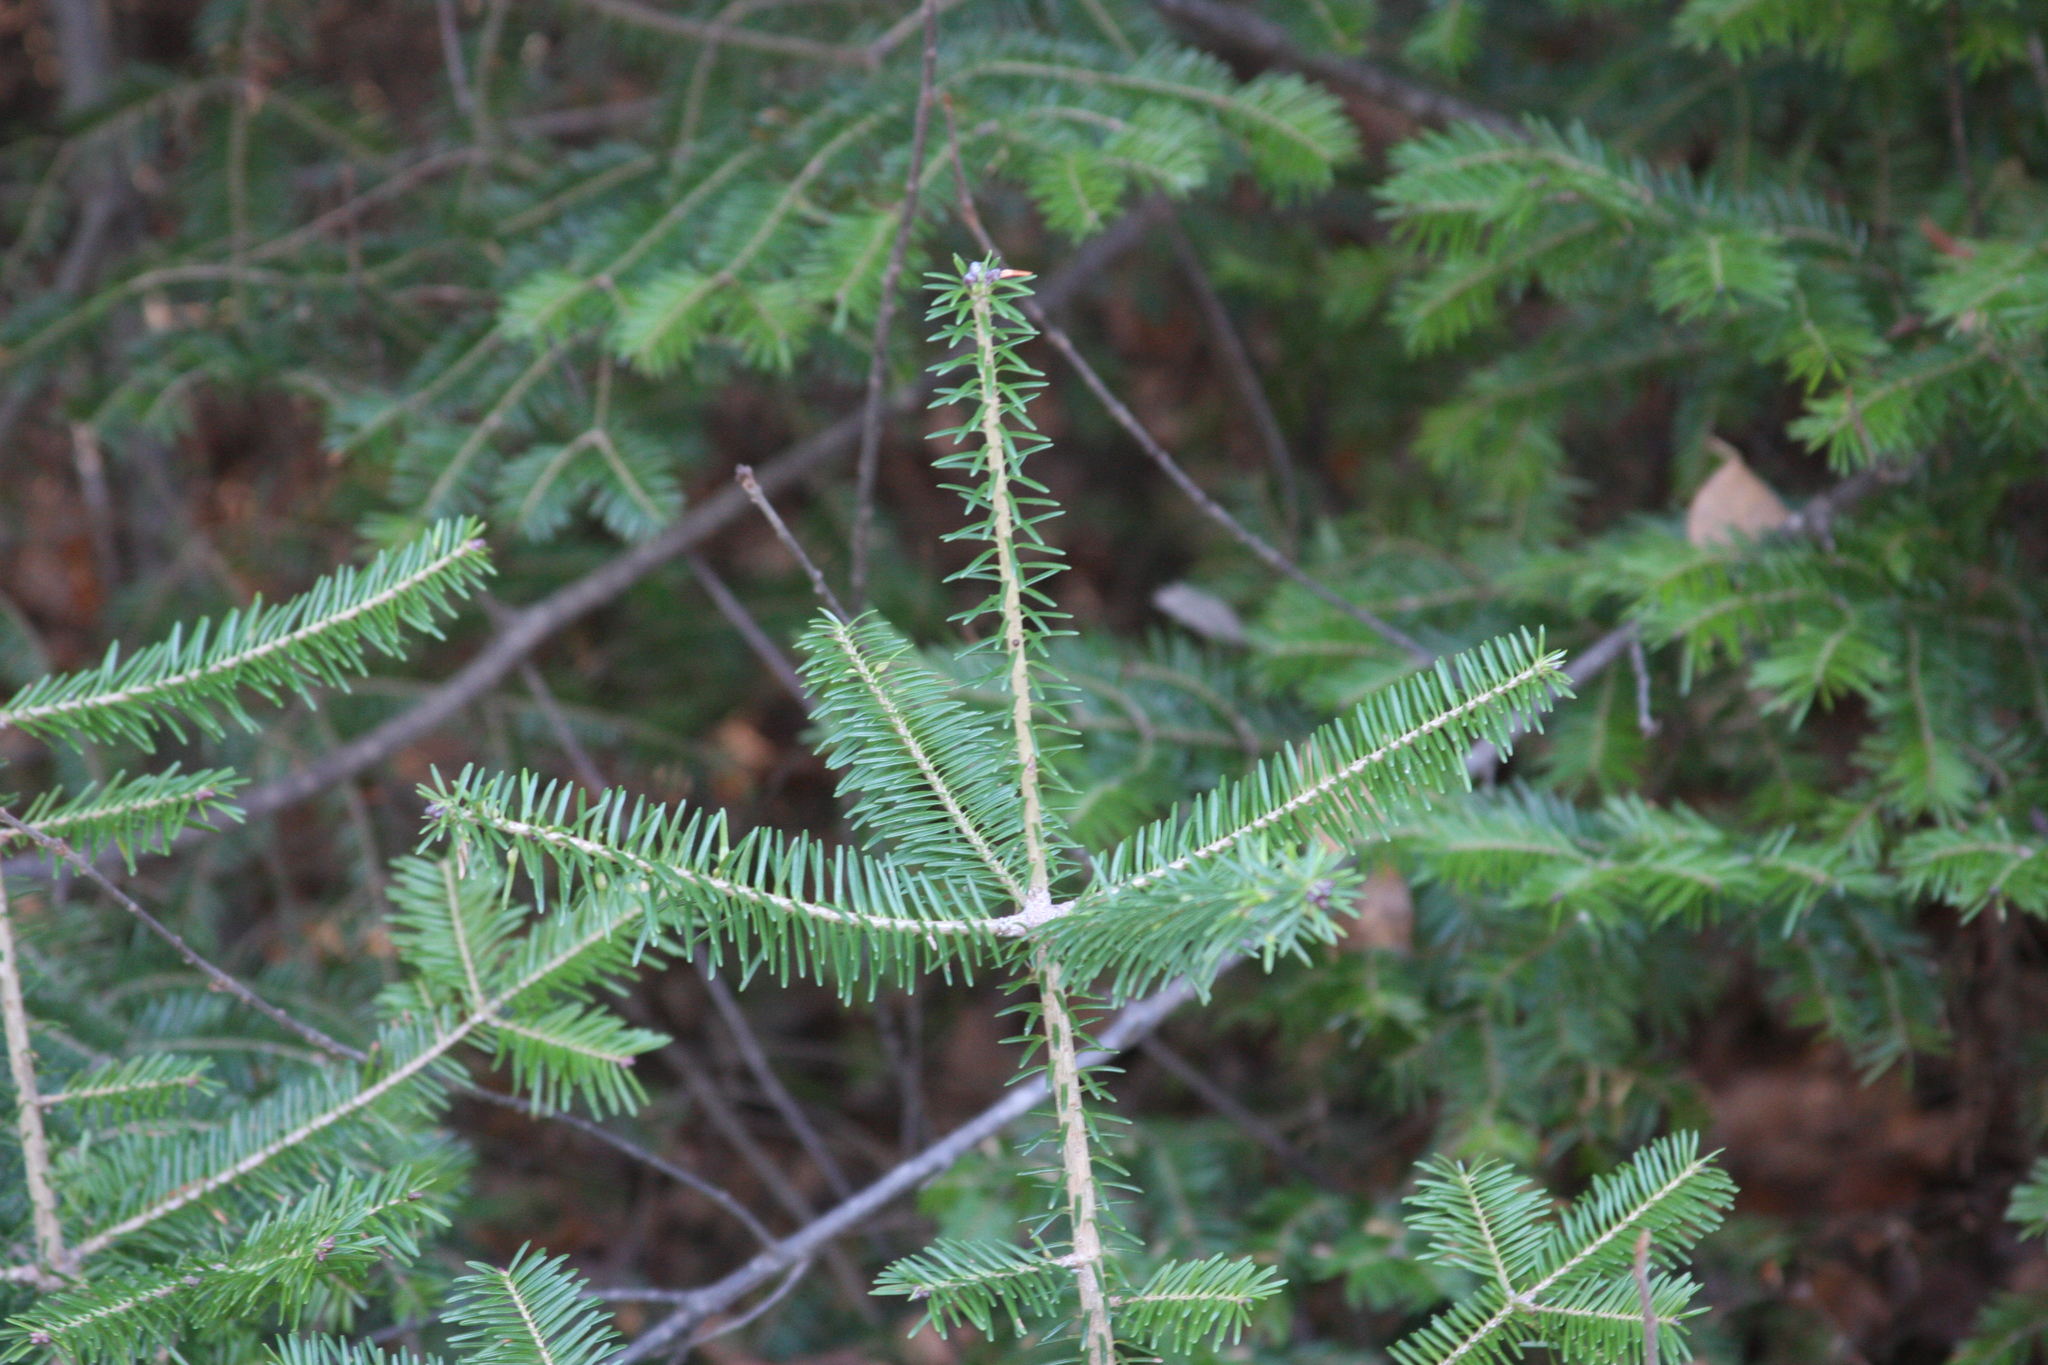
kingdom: Plantae
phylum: Tracheophyta
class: Pinopsida
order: Pinales
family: Pinaceae
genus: Abies
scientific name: Abies balsamea
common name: Balsam fir
